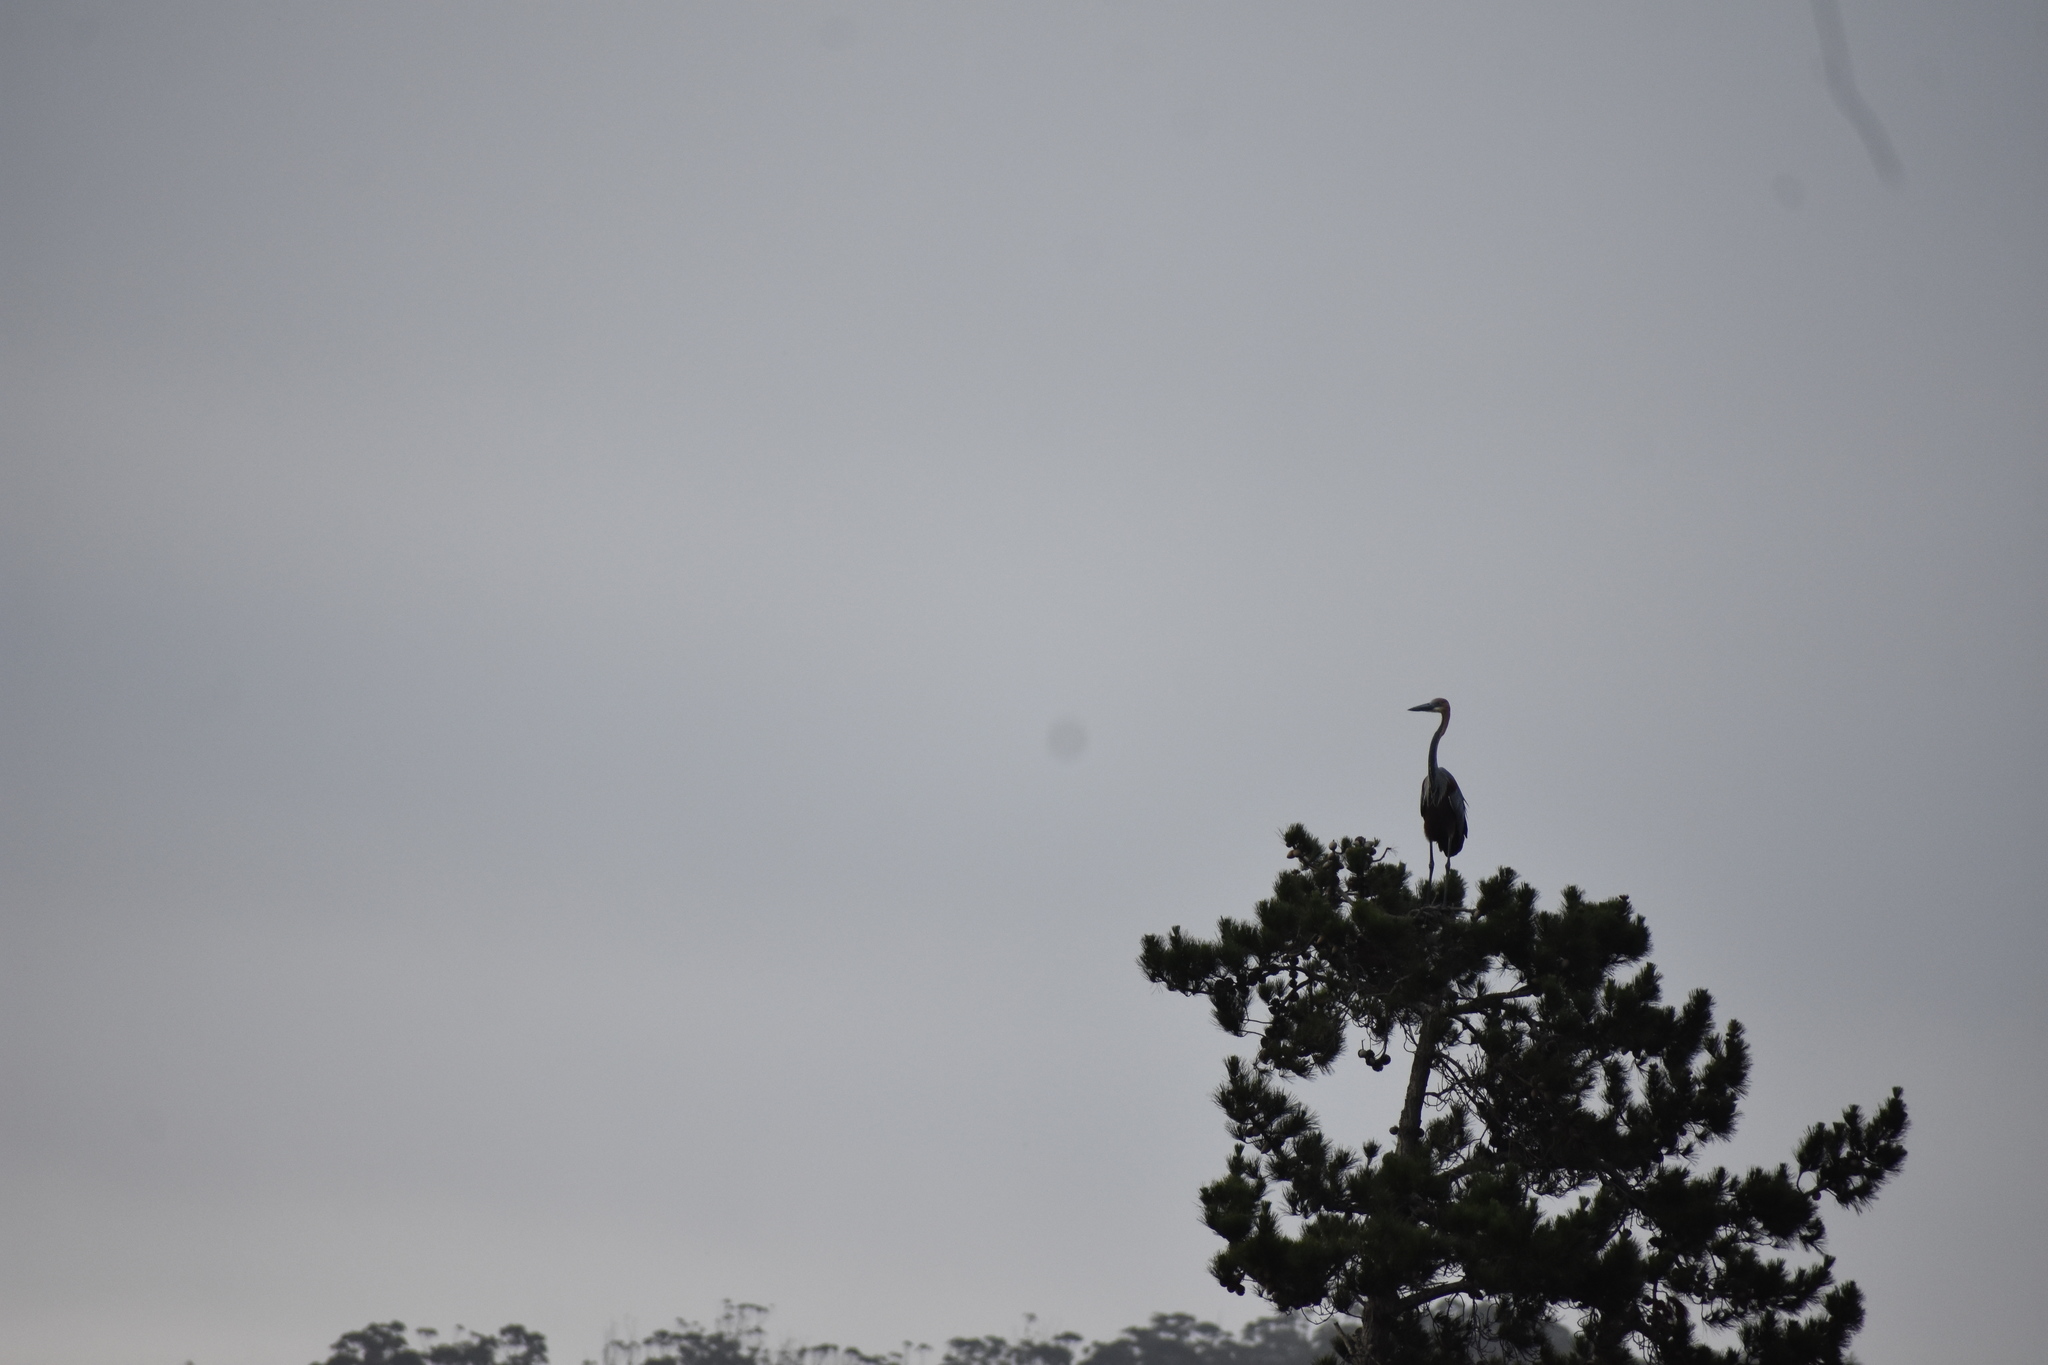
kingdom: Animalia
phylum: Chordata
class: Aves
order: Pelecaniformes
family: Ardeidae
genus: Ardea
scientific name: Ardea goliath
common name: Goliath heron
